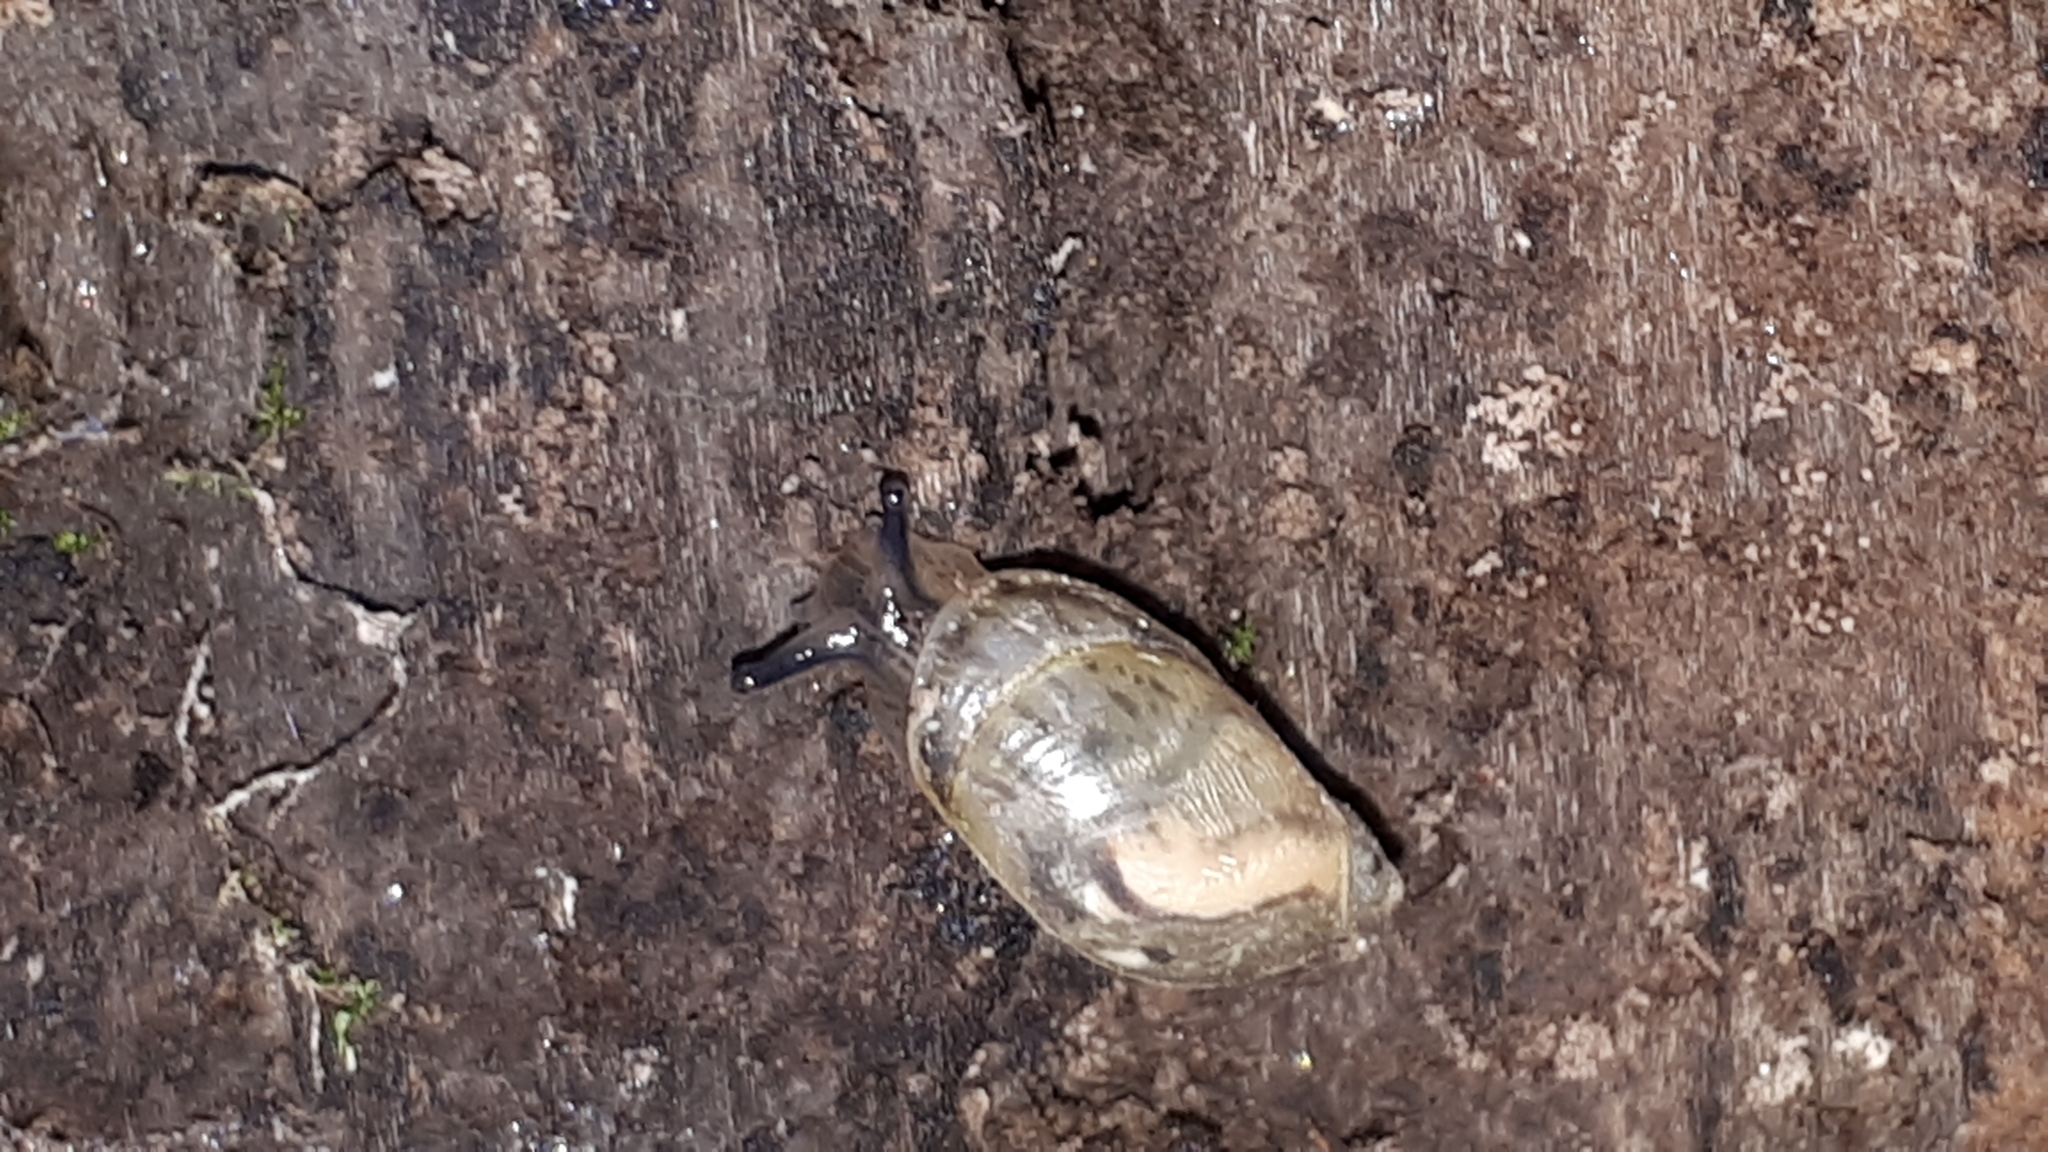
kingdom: Animalia
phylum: Mollusca
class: Gastropoda
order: Stylommatophora
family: Succineidae
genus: Succinea
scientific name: Succinea putris
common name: European ambersnail
